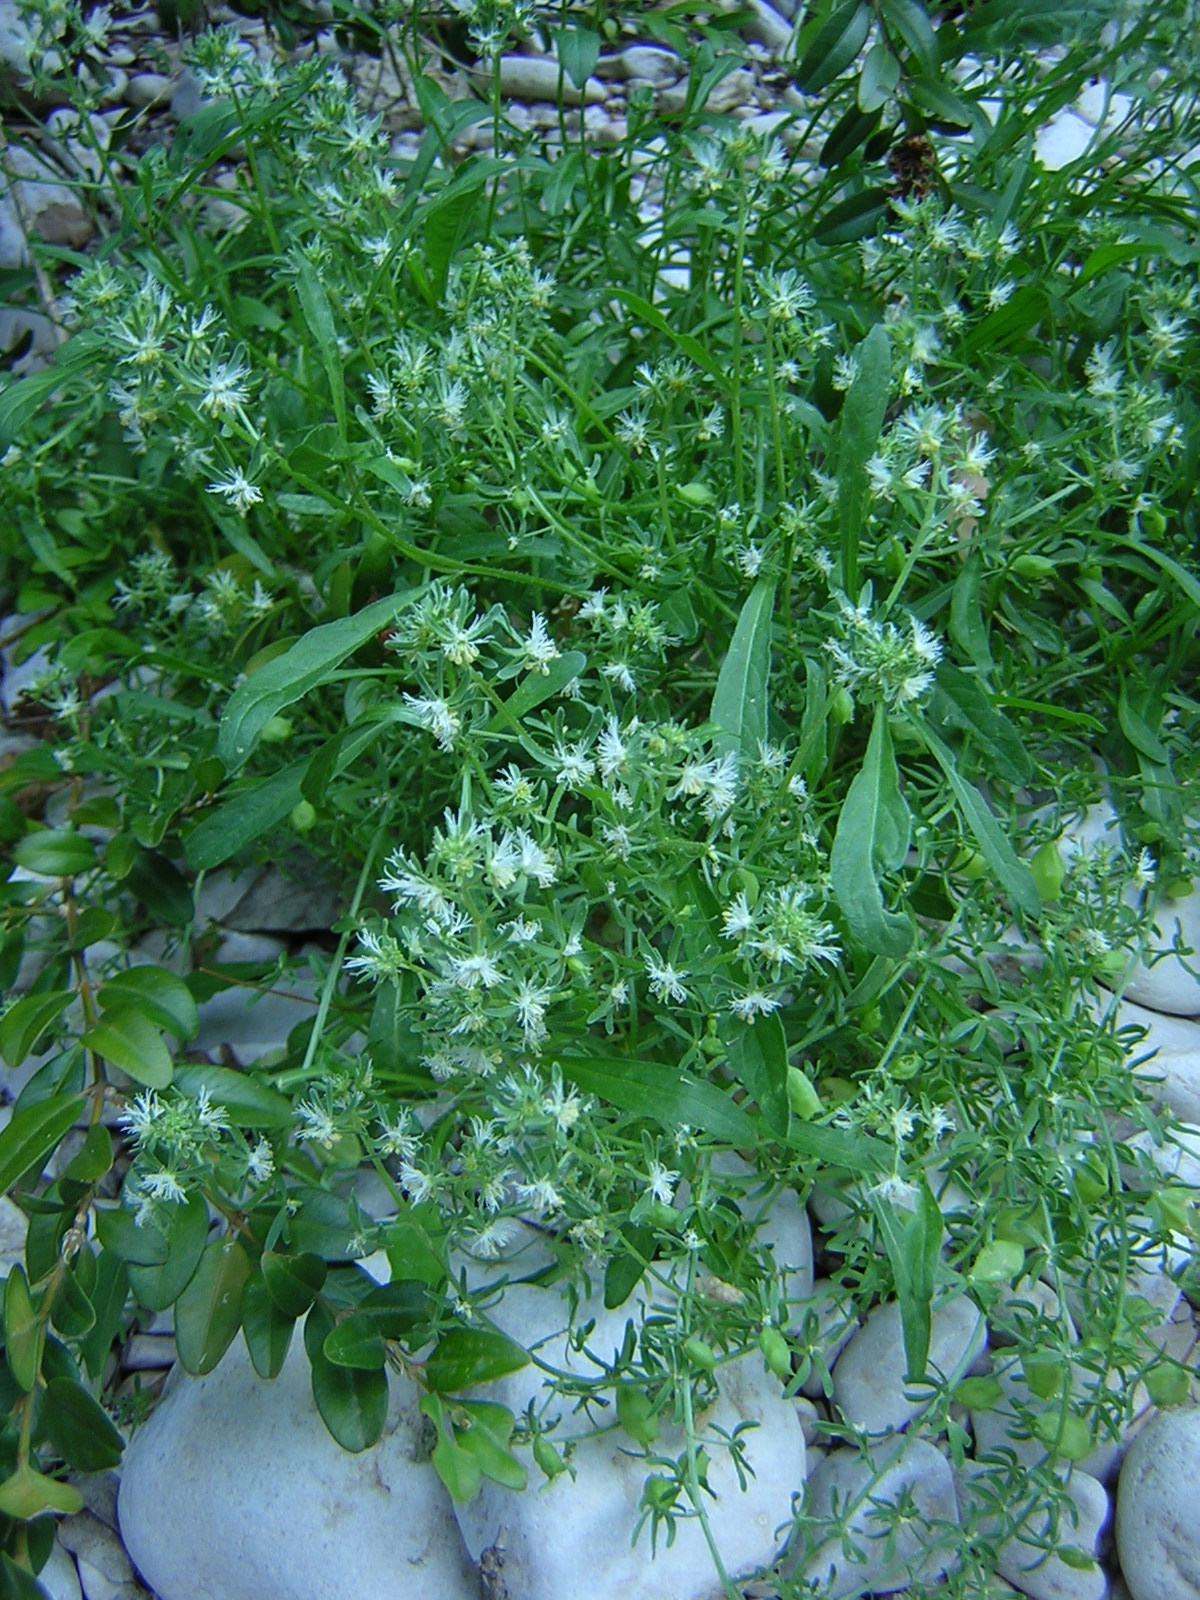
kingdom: Plantae
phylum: Tracheophyta
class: Magnoliopsida
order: Brassicales
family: Resedaceae
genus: Reseda
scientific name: Reseda phyteuma
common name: Corn mignonette
